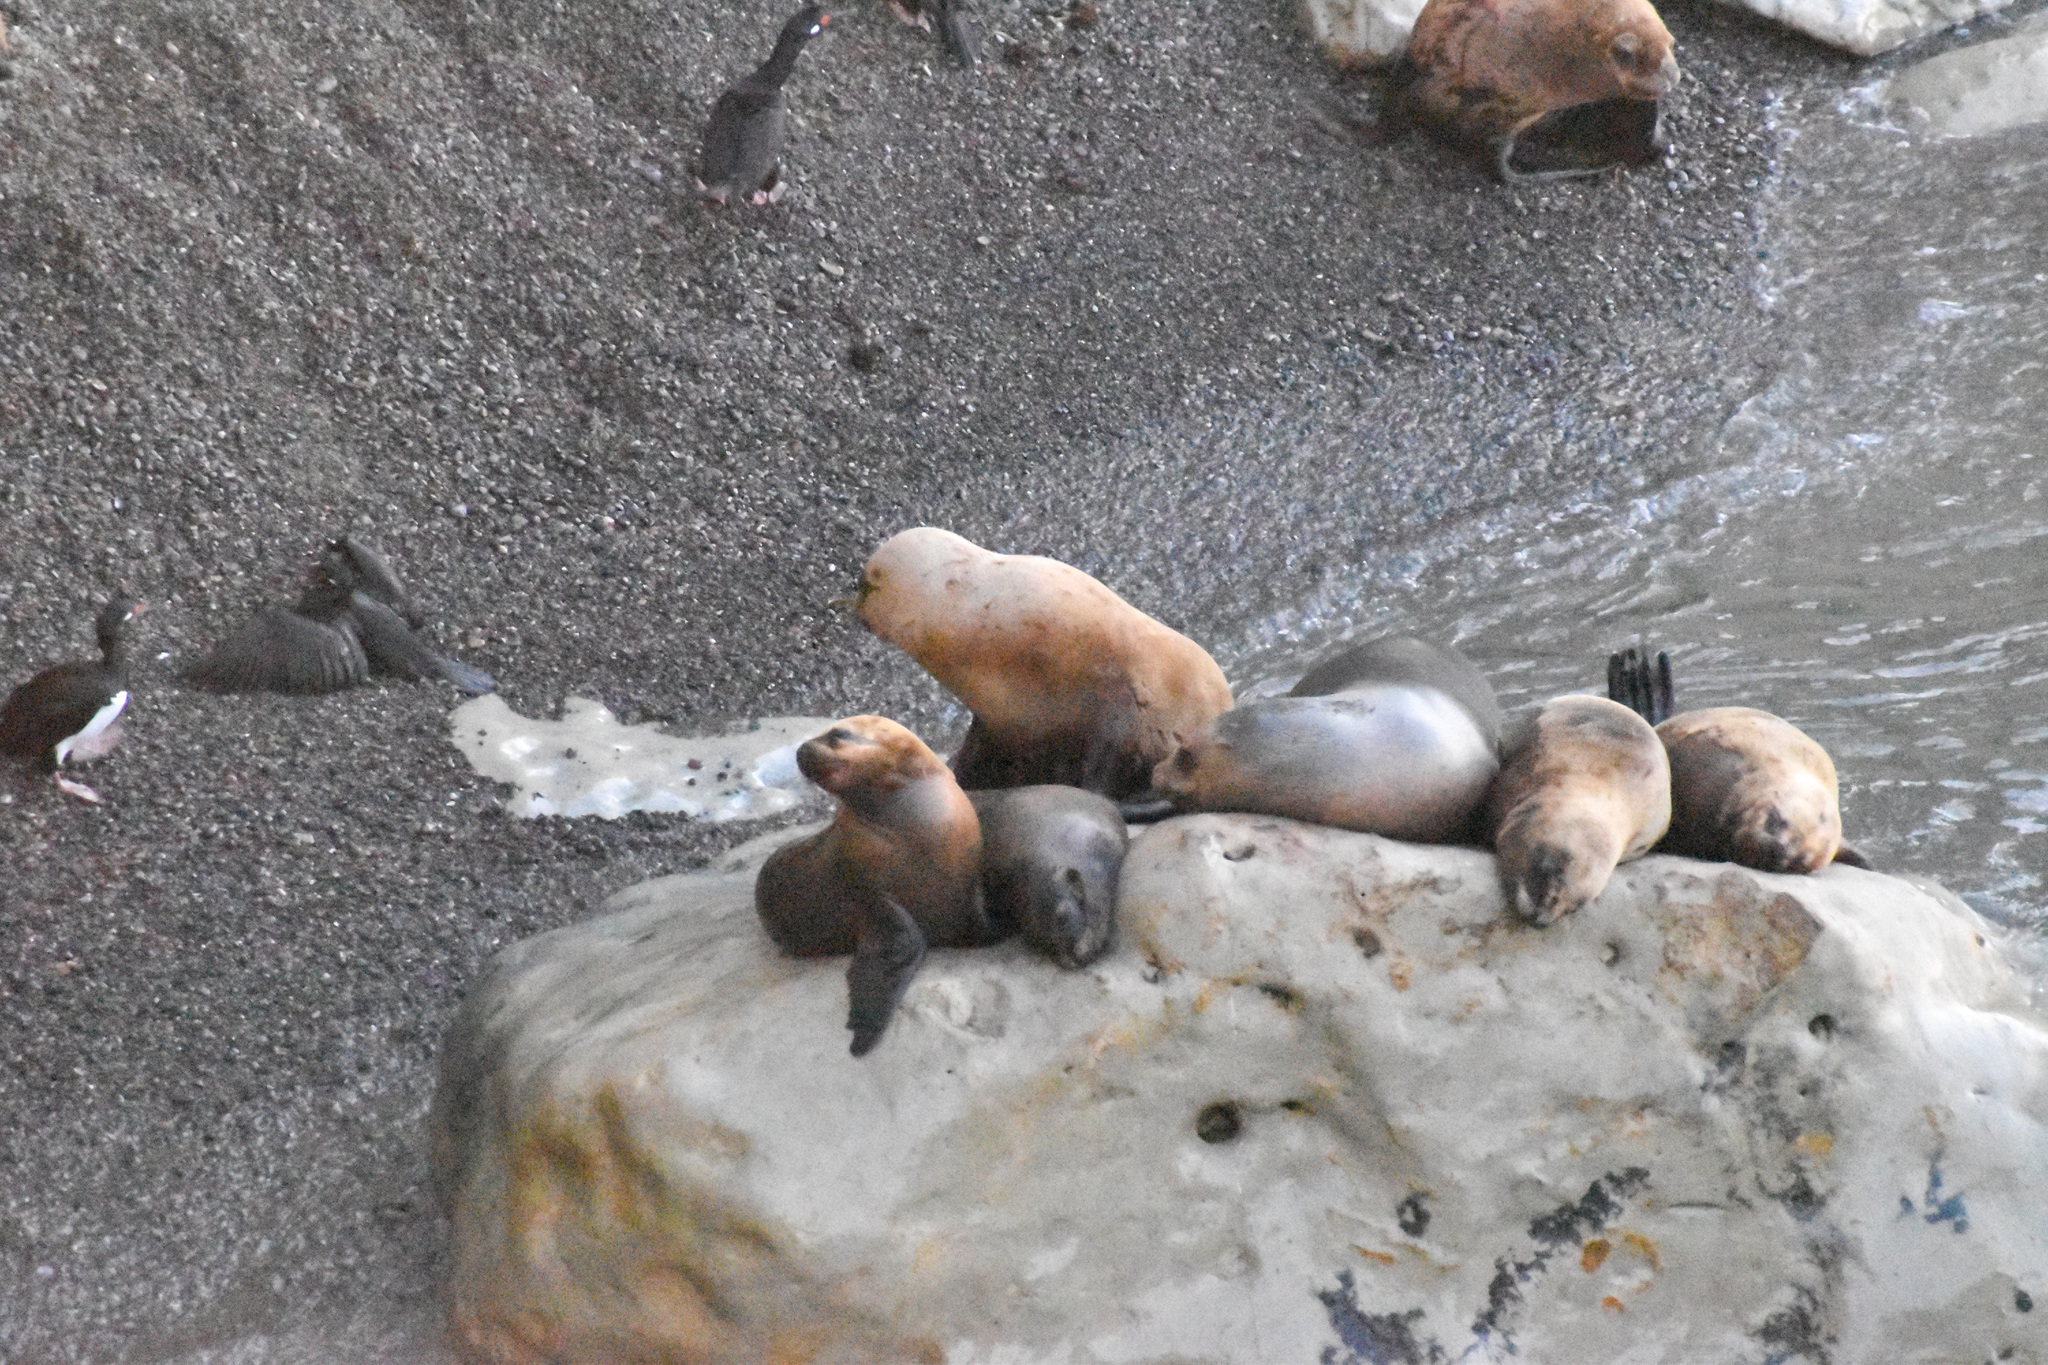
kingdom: Animalia
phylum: Chordata
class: Mammalia
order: Carnivora
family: Otariidae
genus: Otaria
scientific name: Otaria byronia
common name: South american sea lion
